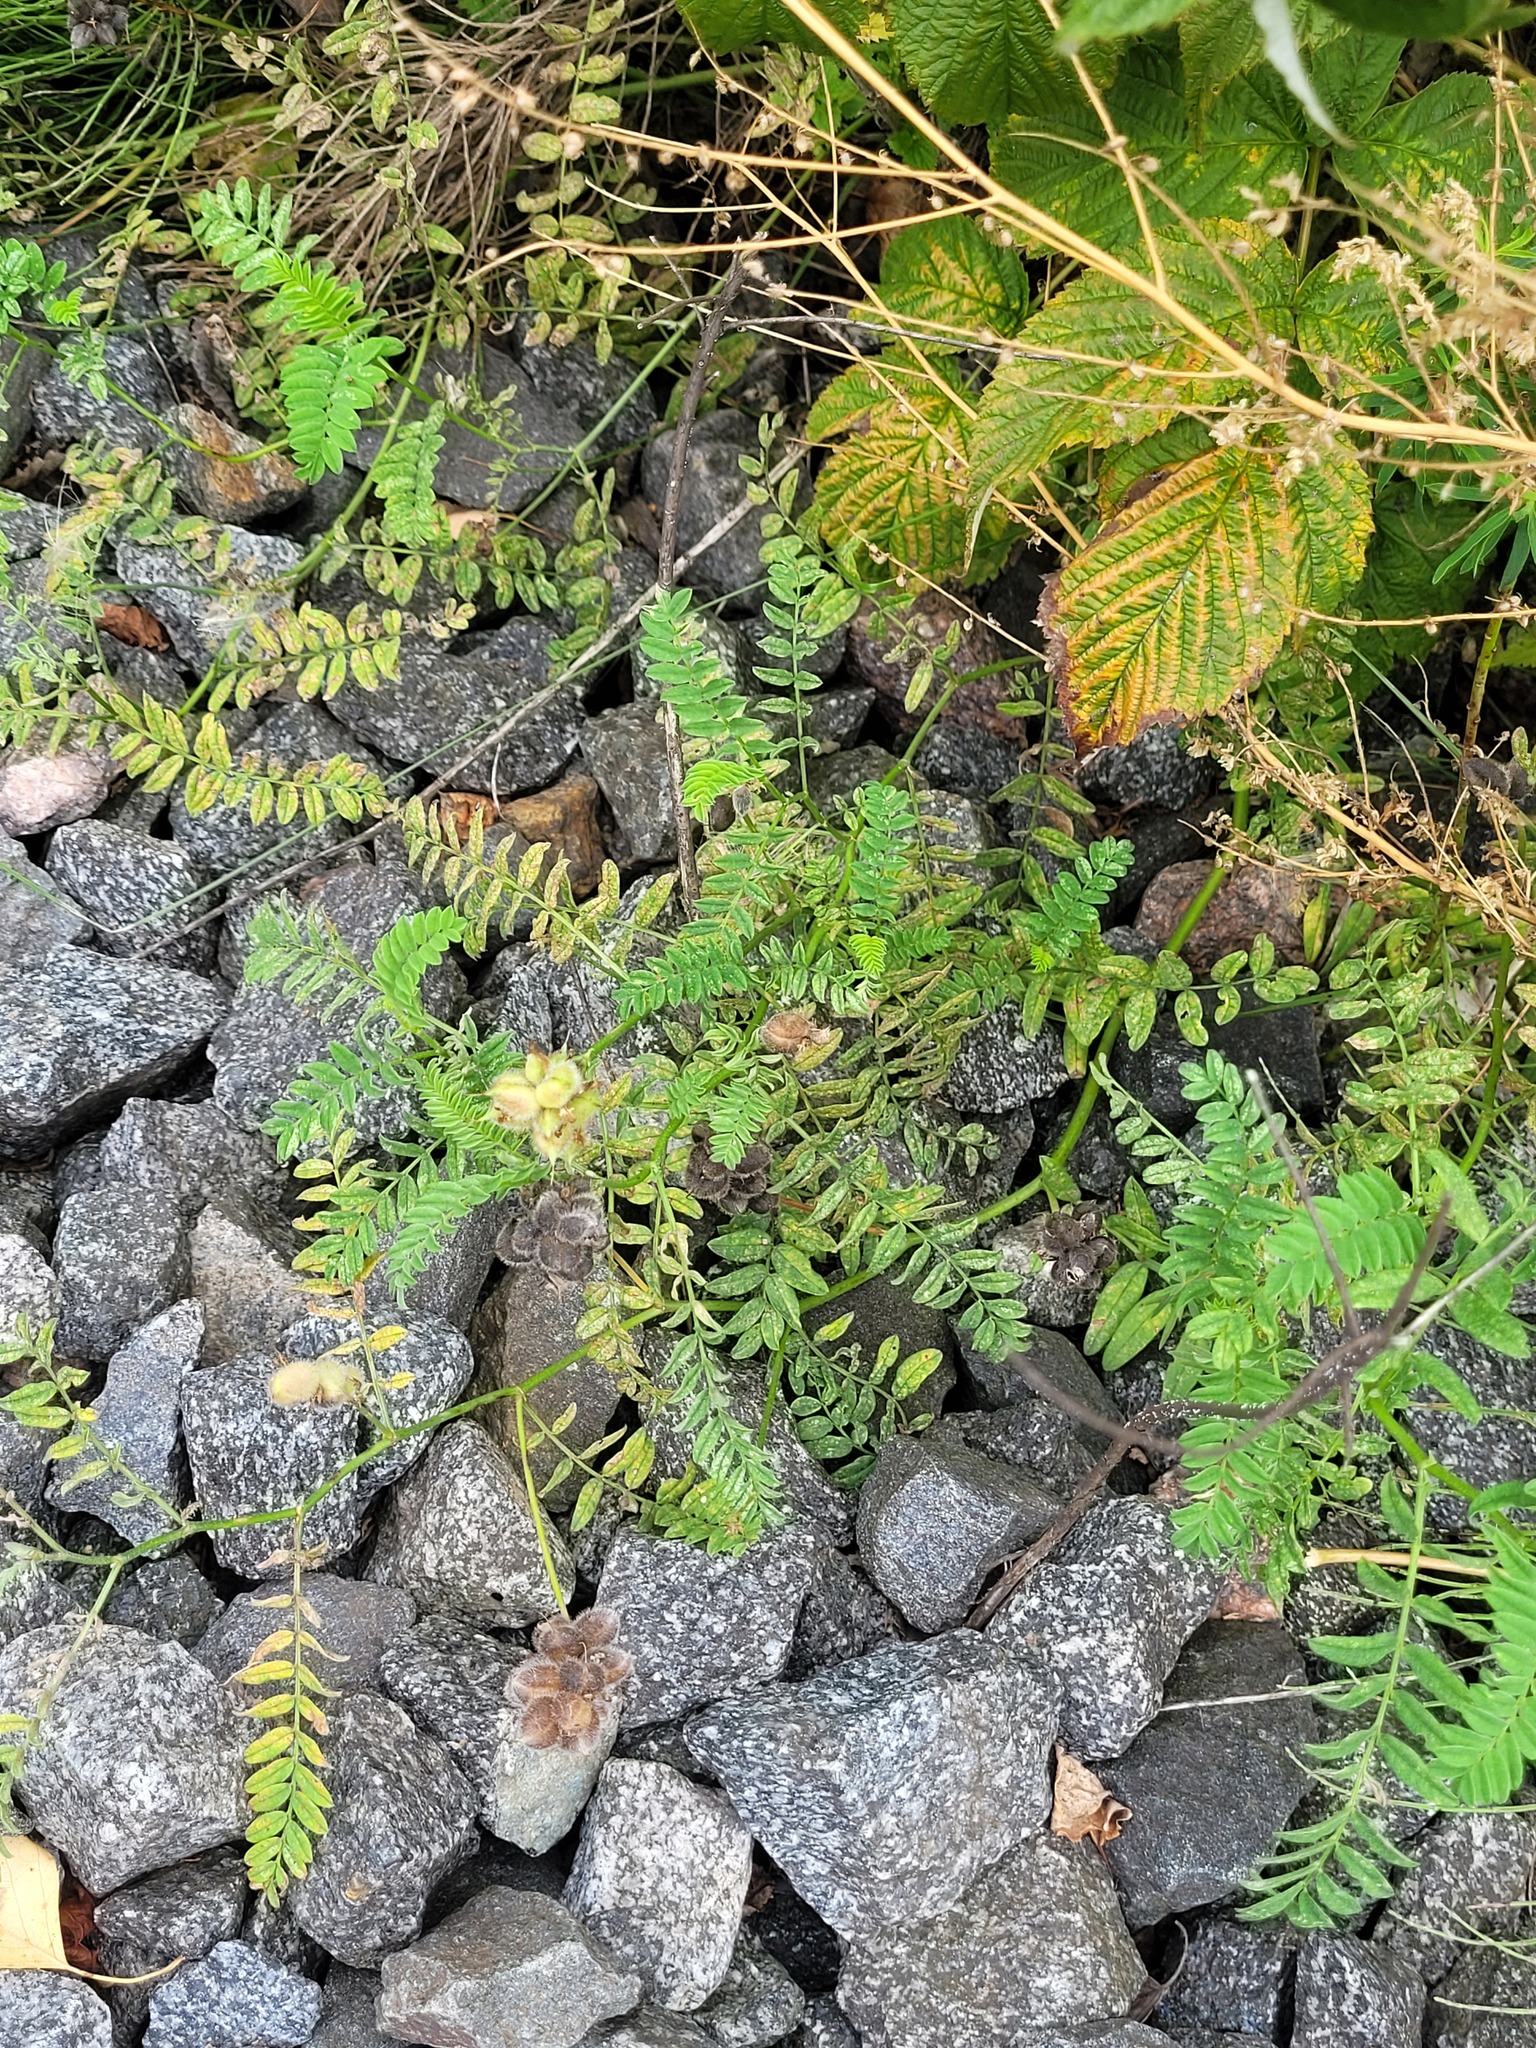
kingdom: Plantae
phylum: Tracheophyta
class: Magnoliopsida
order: Fabales
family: Fabaceae
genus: Astragalus
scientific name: Astragalus cicer
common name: Chick-pea milk-vetch
